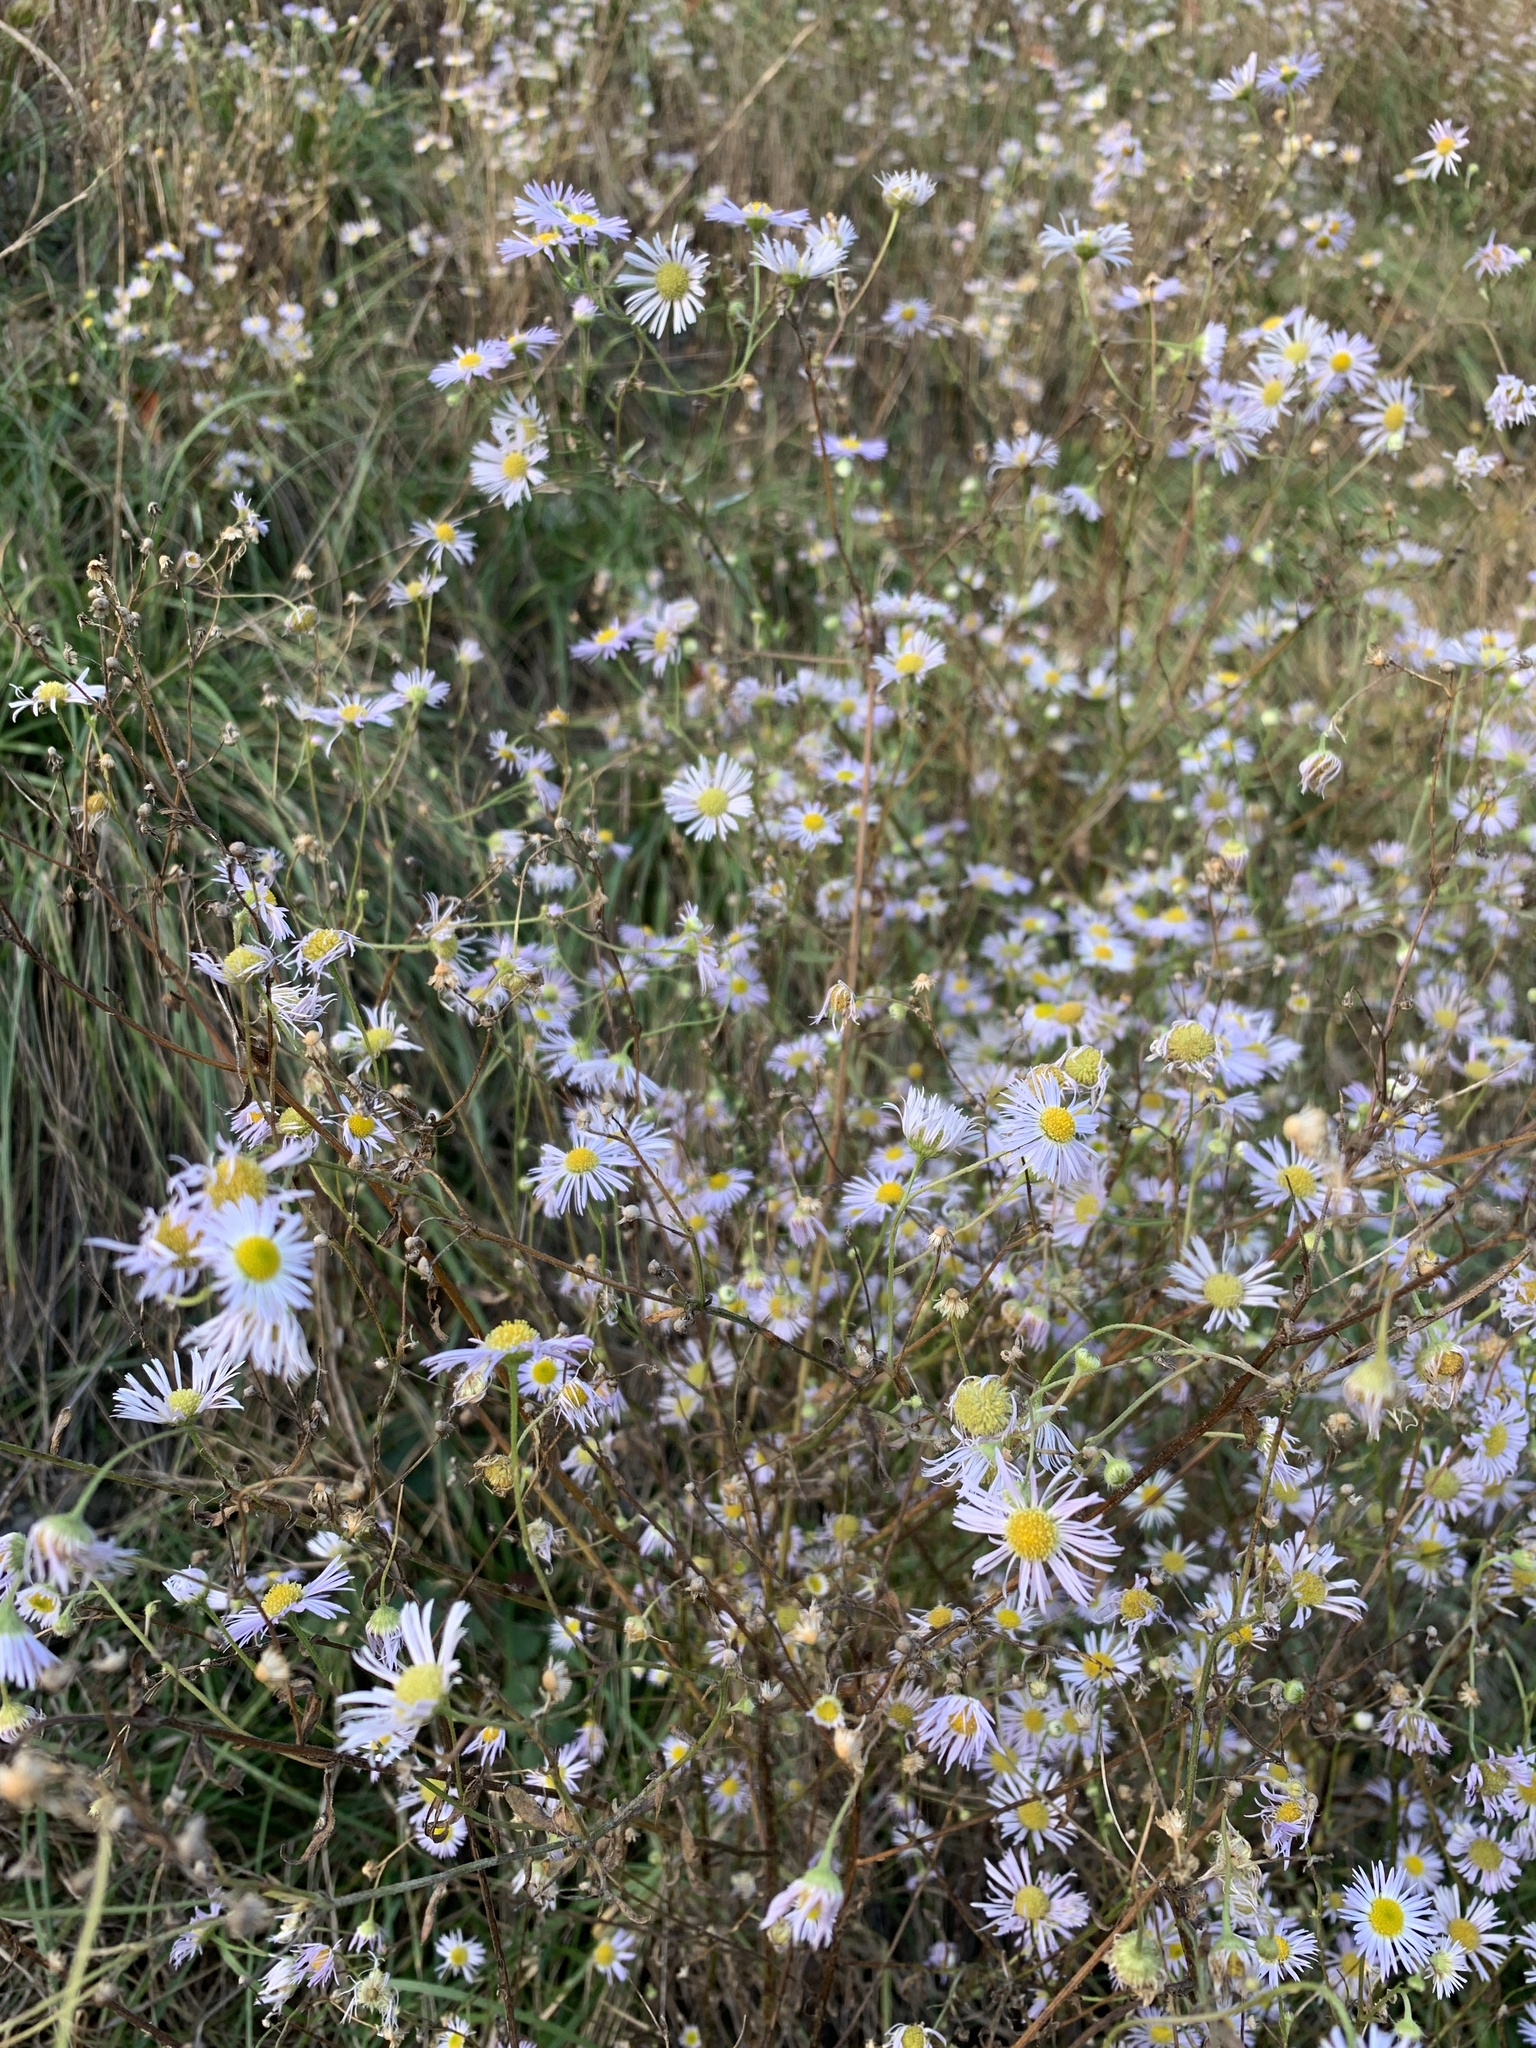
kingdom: Plantae
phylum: Tracheophyta
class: Magnoliopsida
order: Asterales
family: Asteraceae
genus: Erigeron
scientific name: Erigeron annuus
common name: Tall fleabane
